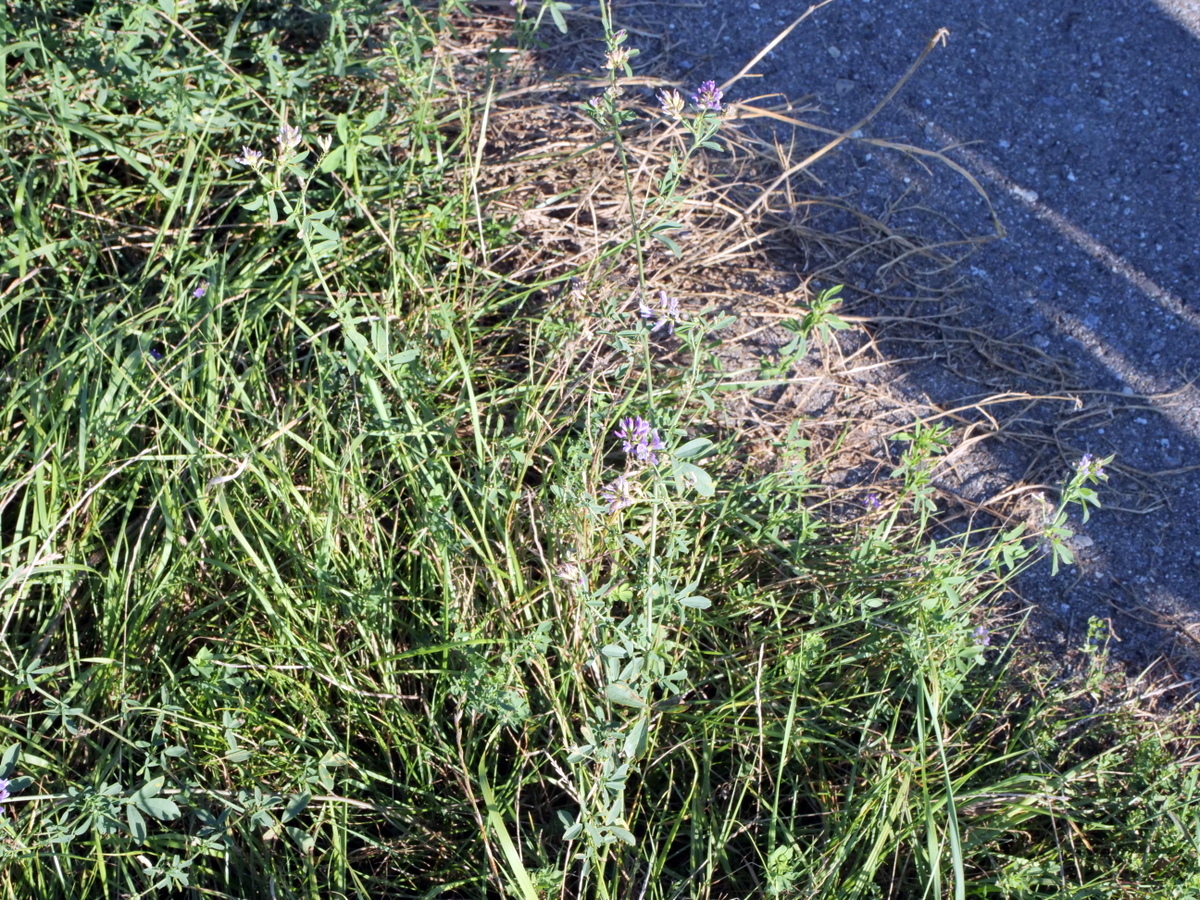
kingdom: Plantae
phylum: Tracheophyta
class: Magnoliopsida
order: Fabales
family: Fabaceae
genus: Medicago
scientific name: Medicago varia
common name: Sand lucerne
